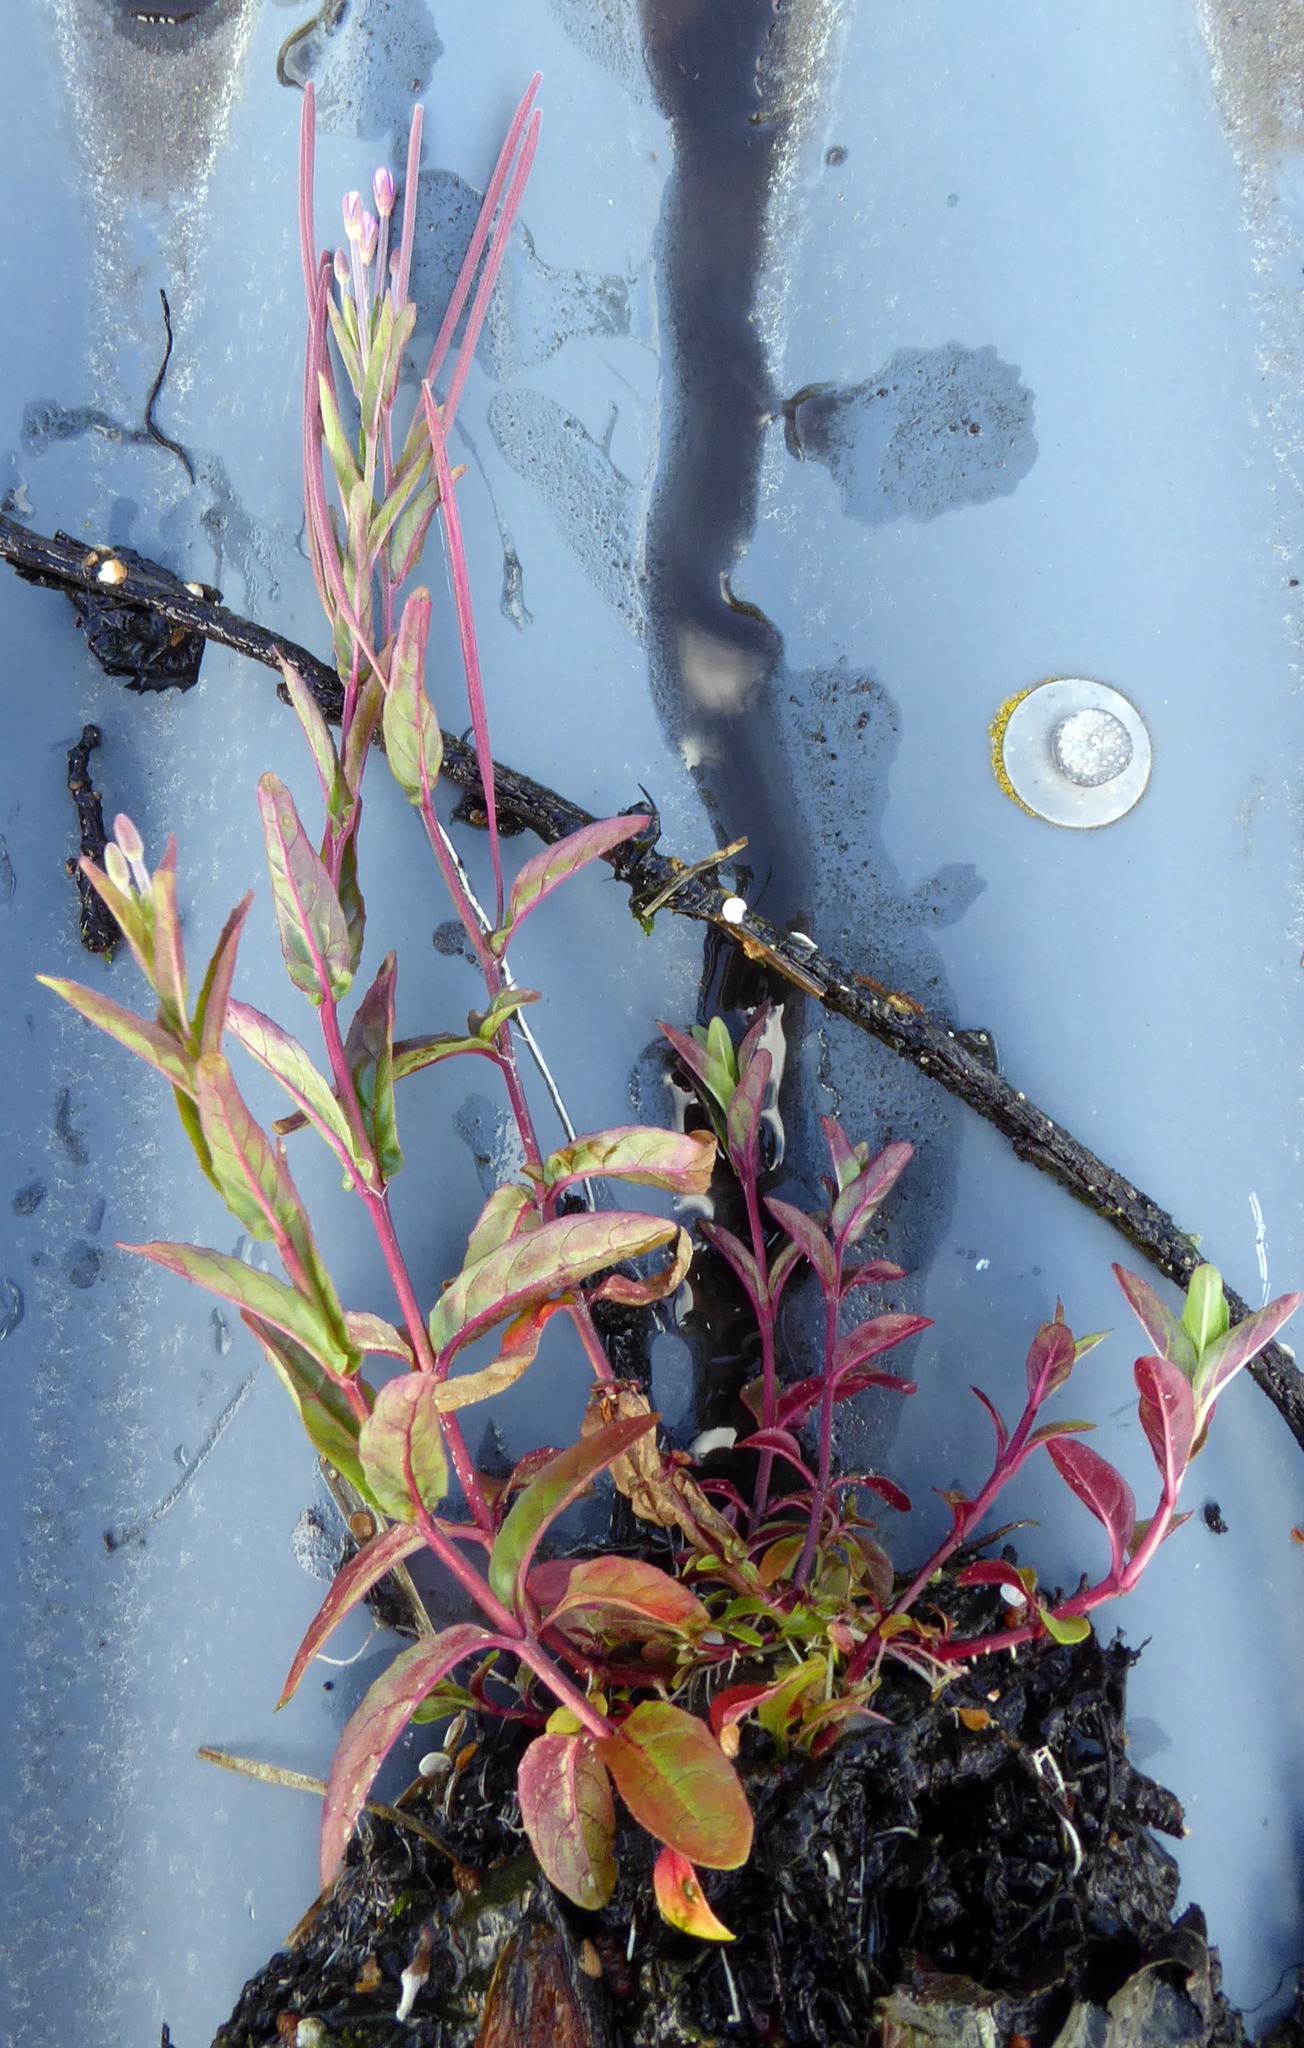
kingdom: Plantae
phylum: Tracheophyta
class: Magnoliopsida
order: Myrtales
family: Onagraceae
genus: Epilobium
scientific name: Epilobium ciliatum
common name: American willowherb
